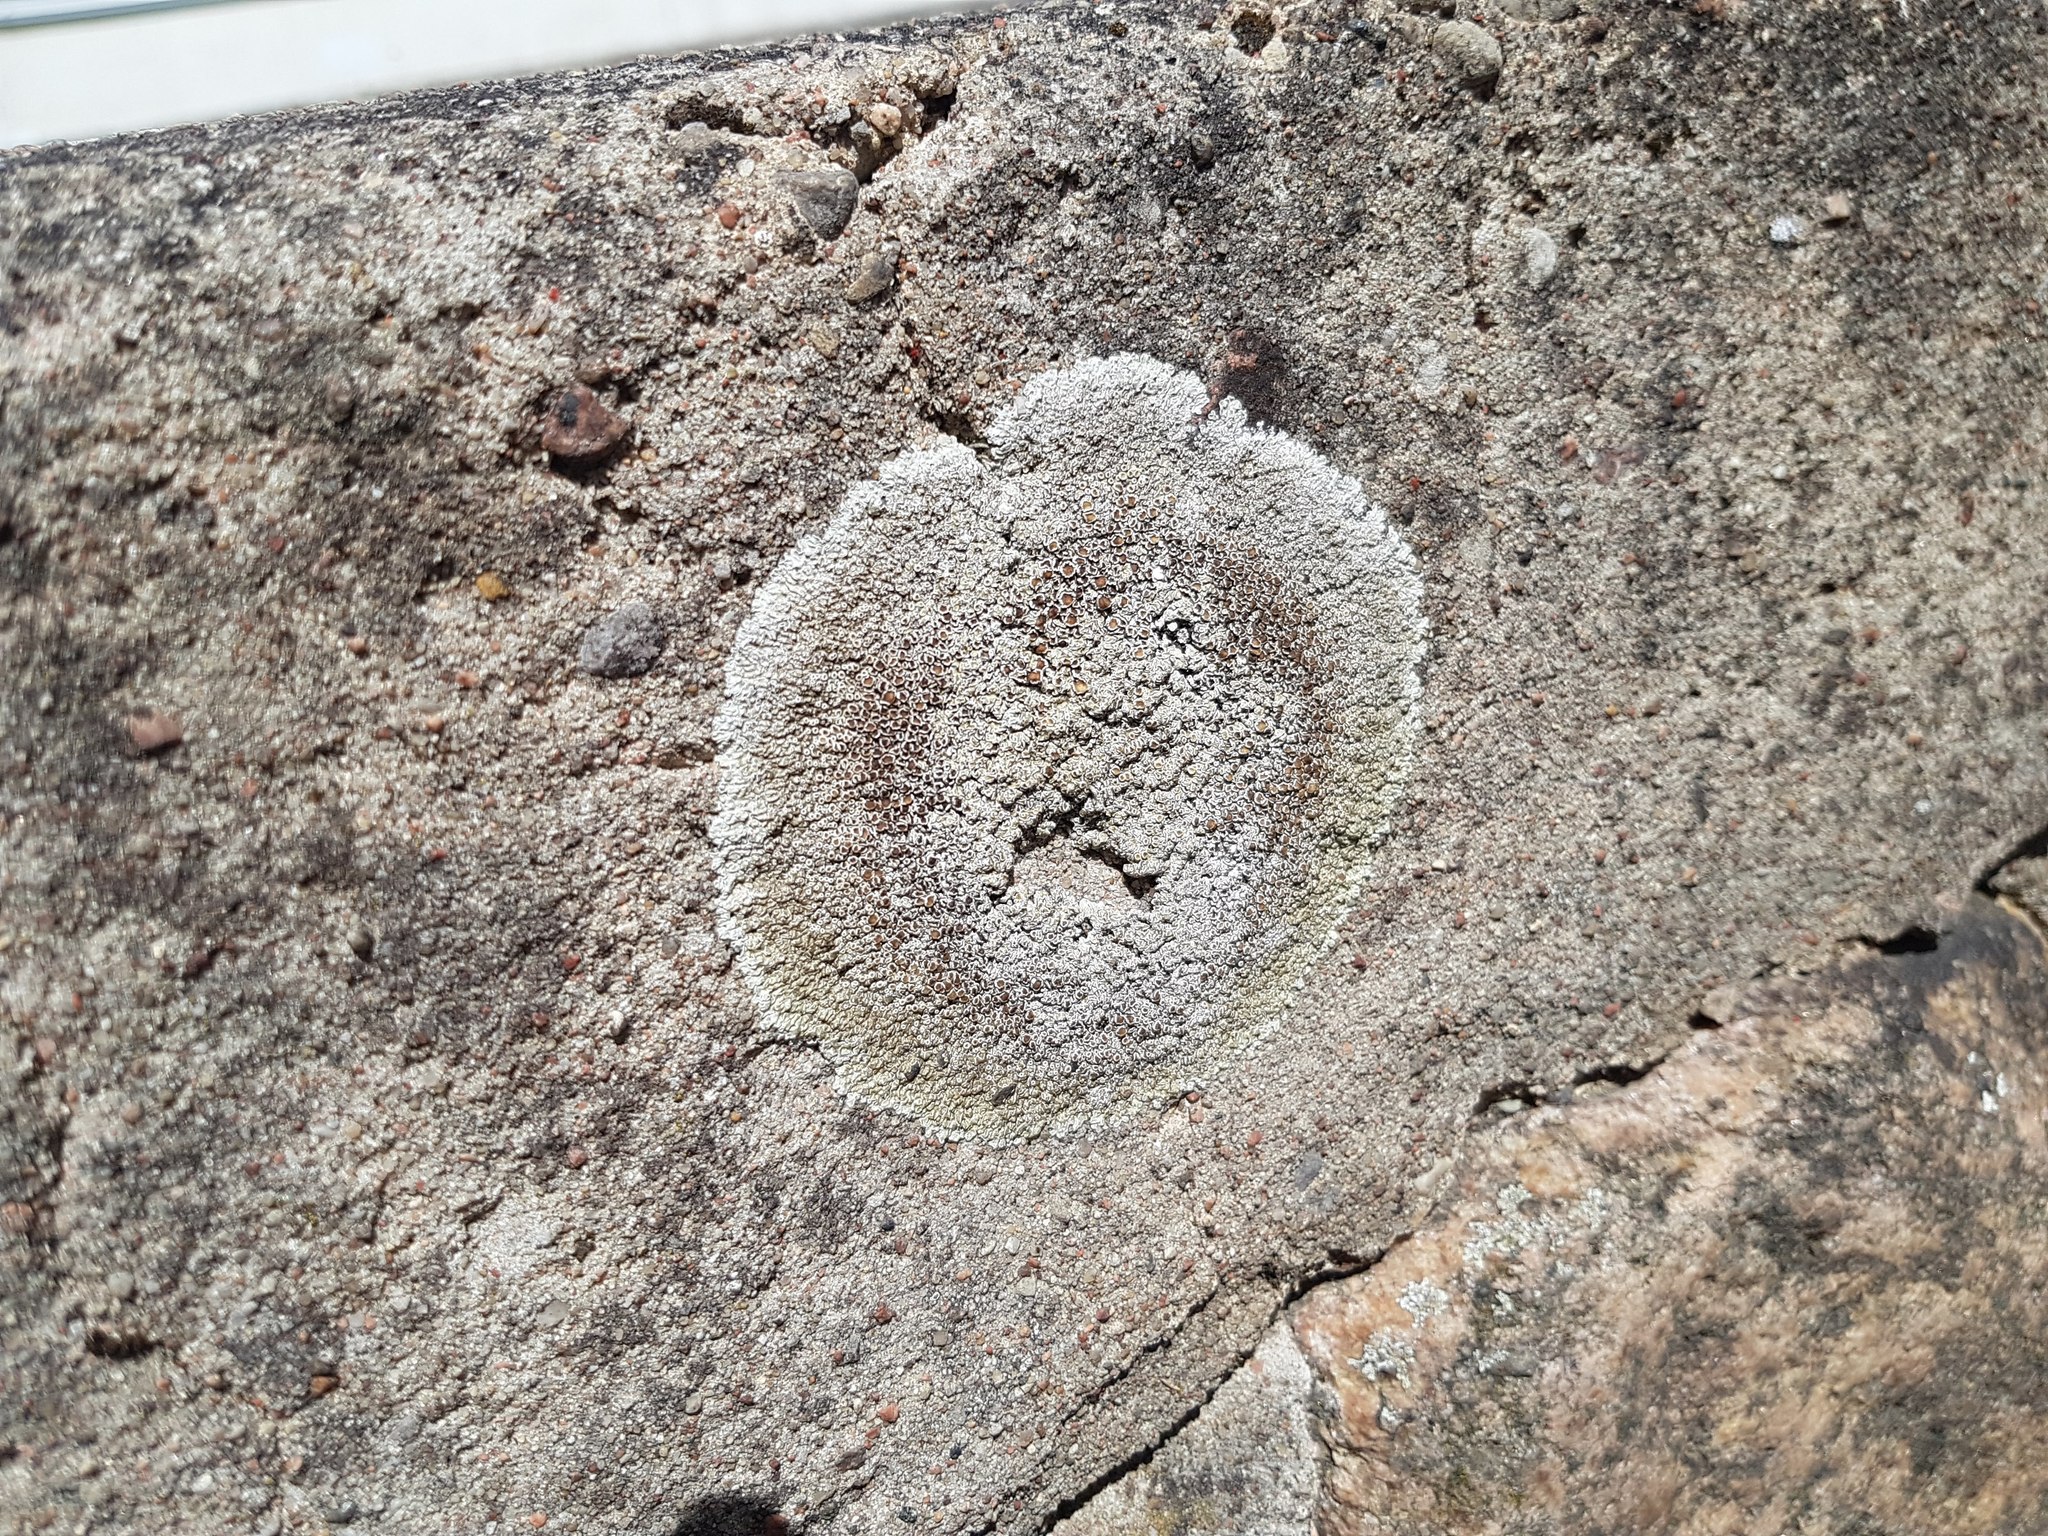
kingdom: Fungi
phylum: Ascomycota
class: Lecanoromycetes
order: Lecanorales
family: Lecanoraceae
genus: Protoparmeliopsis
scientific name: Protoparmeliopsis muralis
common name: Stonewall rim lichen
